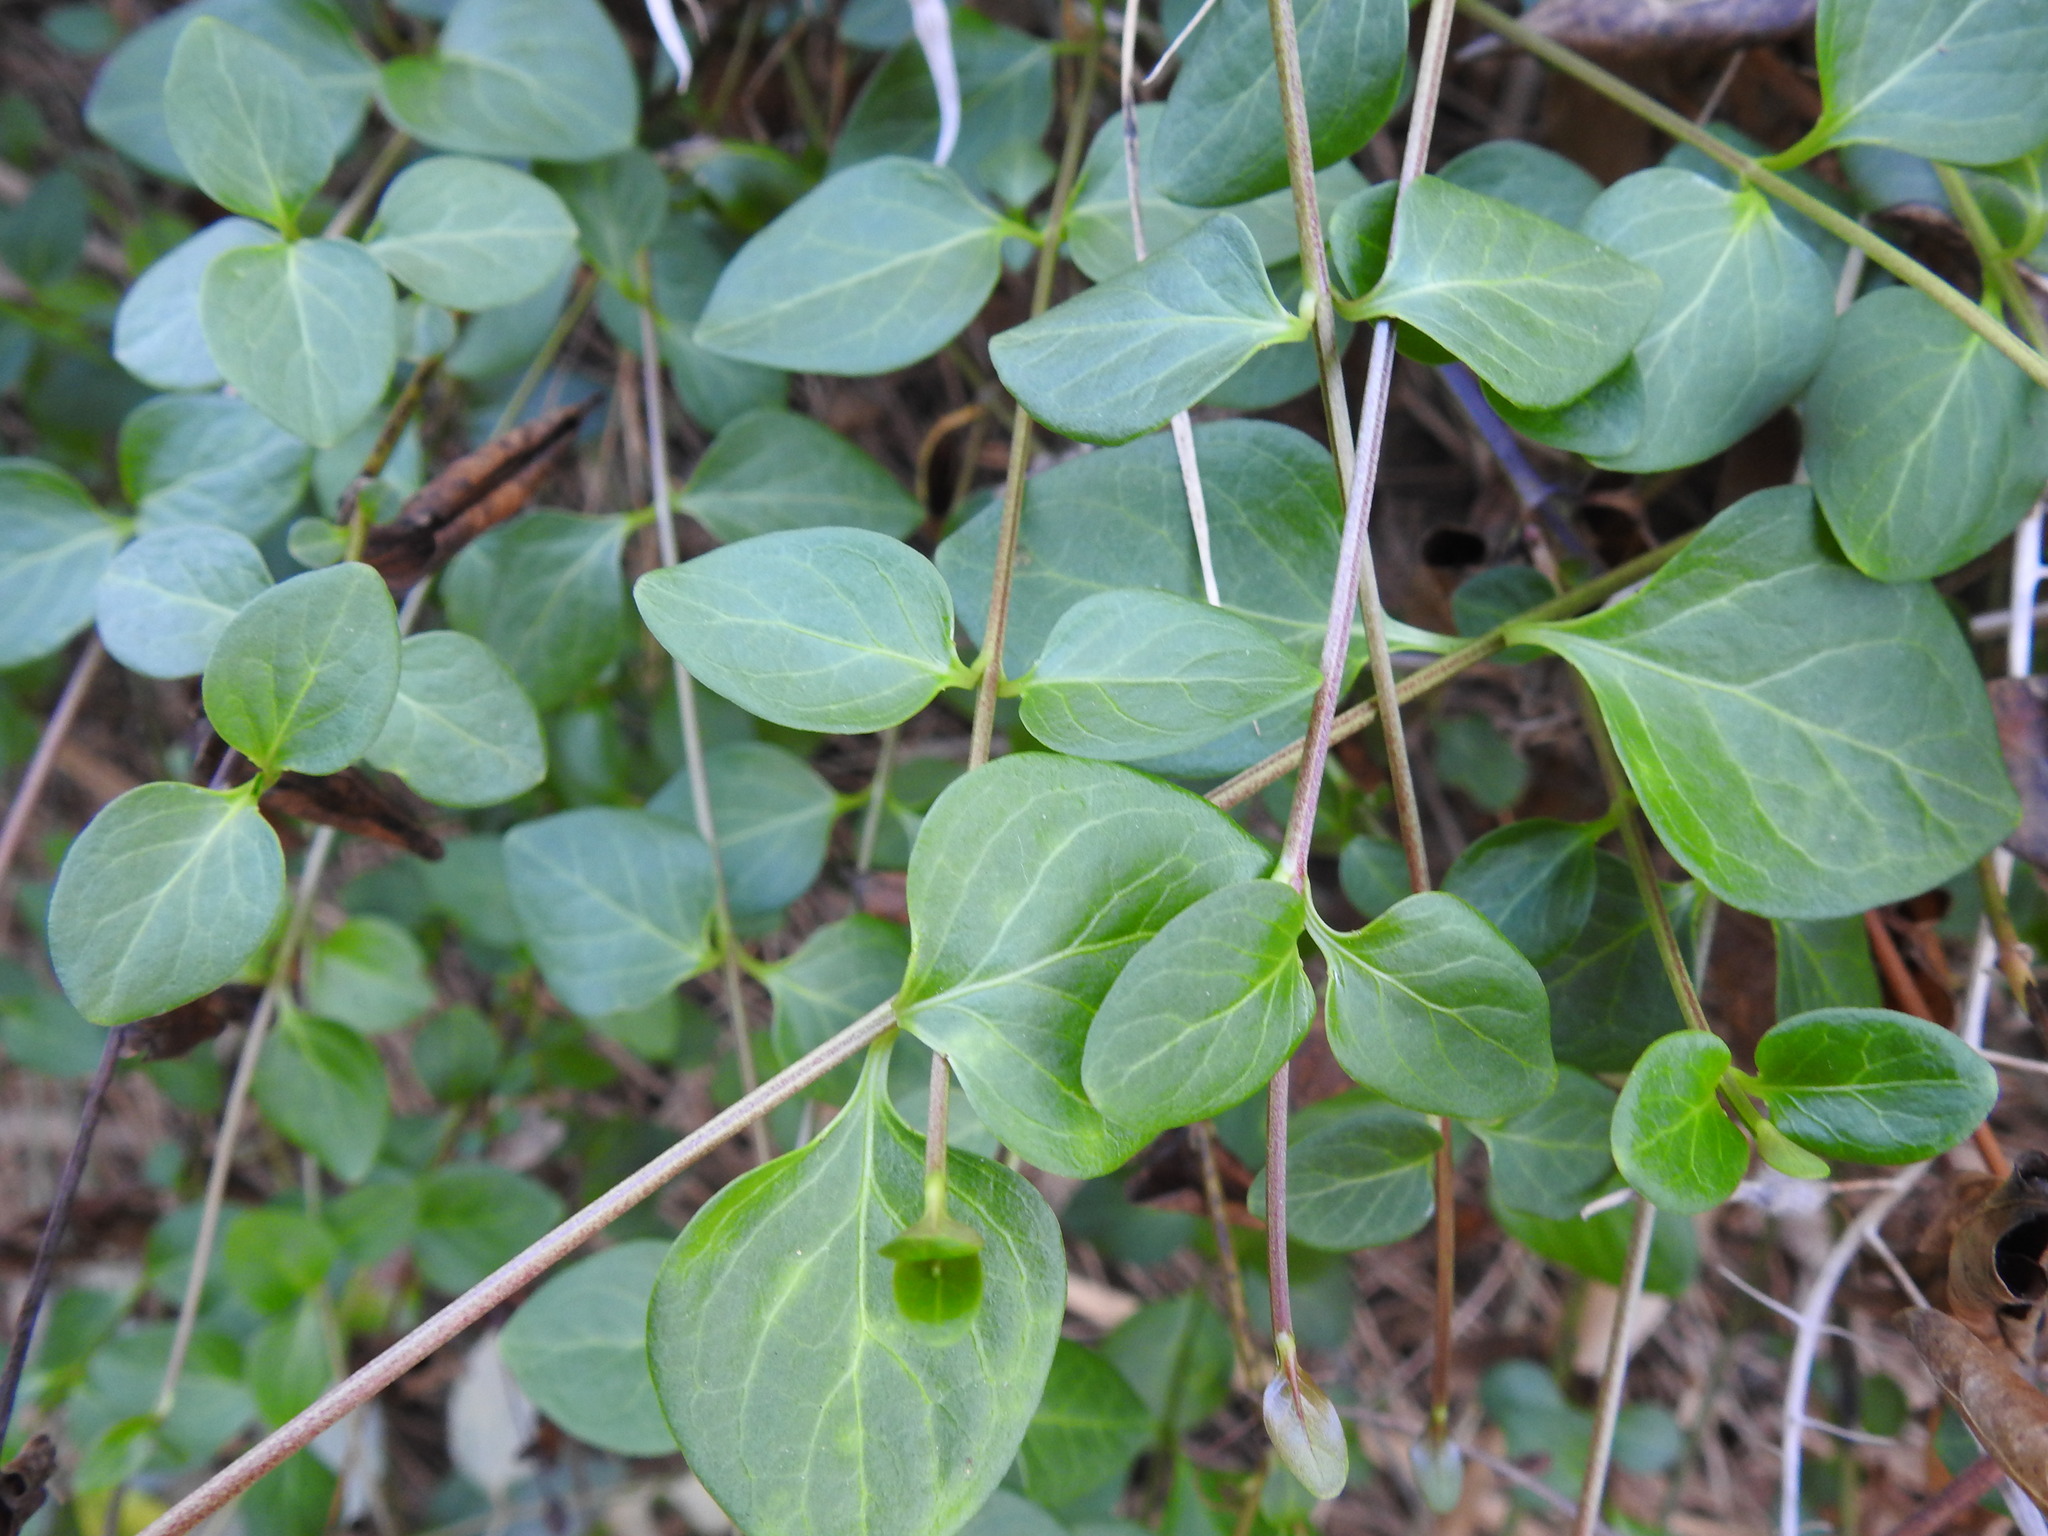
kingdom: Plantae
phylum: Tracheophyta
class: Magnoliopsida
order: Gentianales
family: Apocynaceae
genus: Vinca
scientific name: Vinca difformis
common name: Intermediate periwinkle
